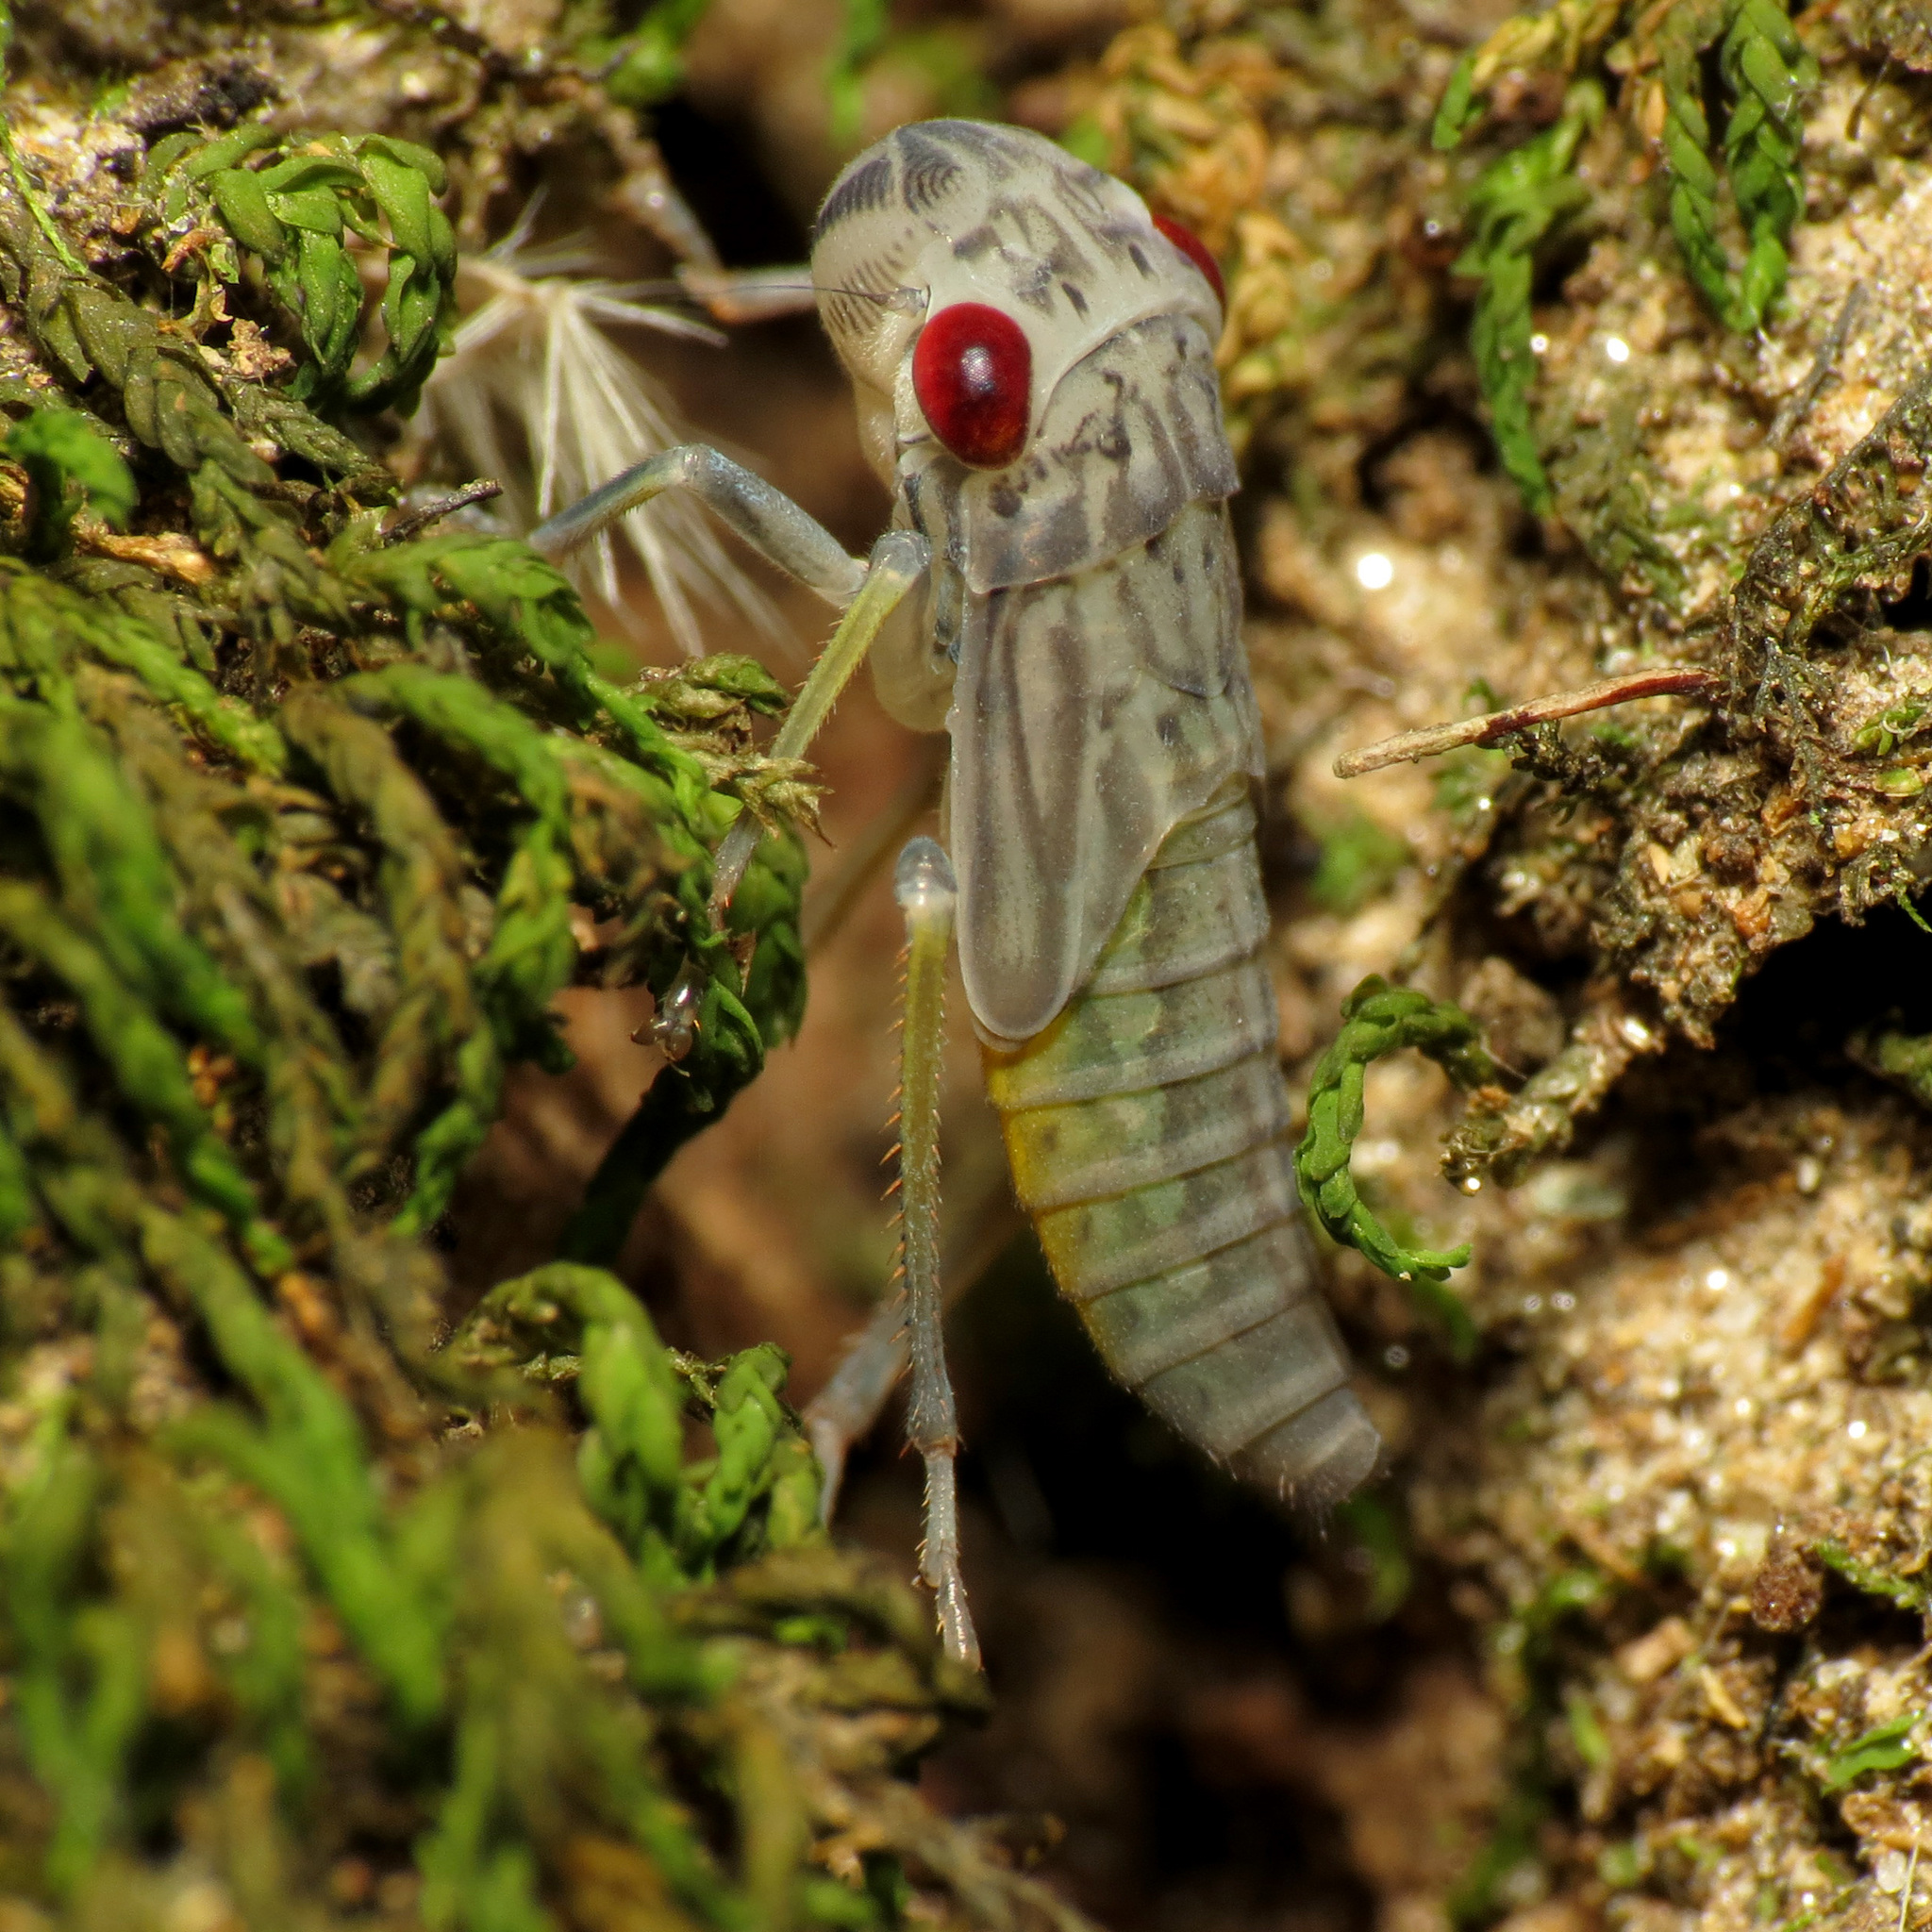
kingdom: Animalia
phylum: Arthropoda
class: Insecta
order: Hemiptera
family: Cicadellidae
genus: Oncometopia
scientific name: Oncometopia orbona
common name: Broad-headed sharpshooter
